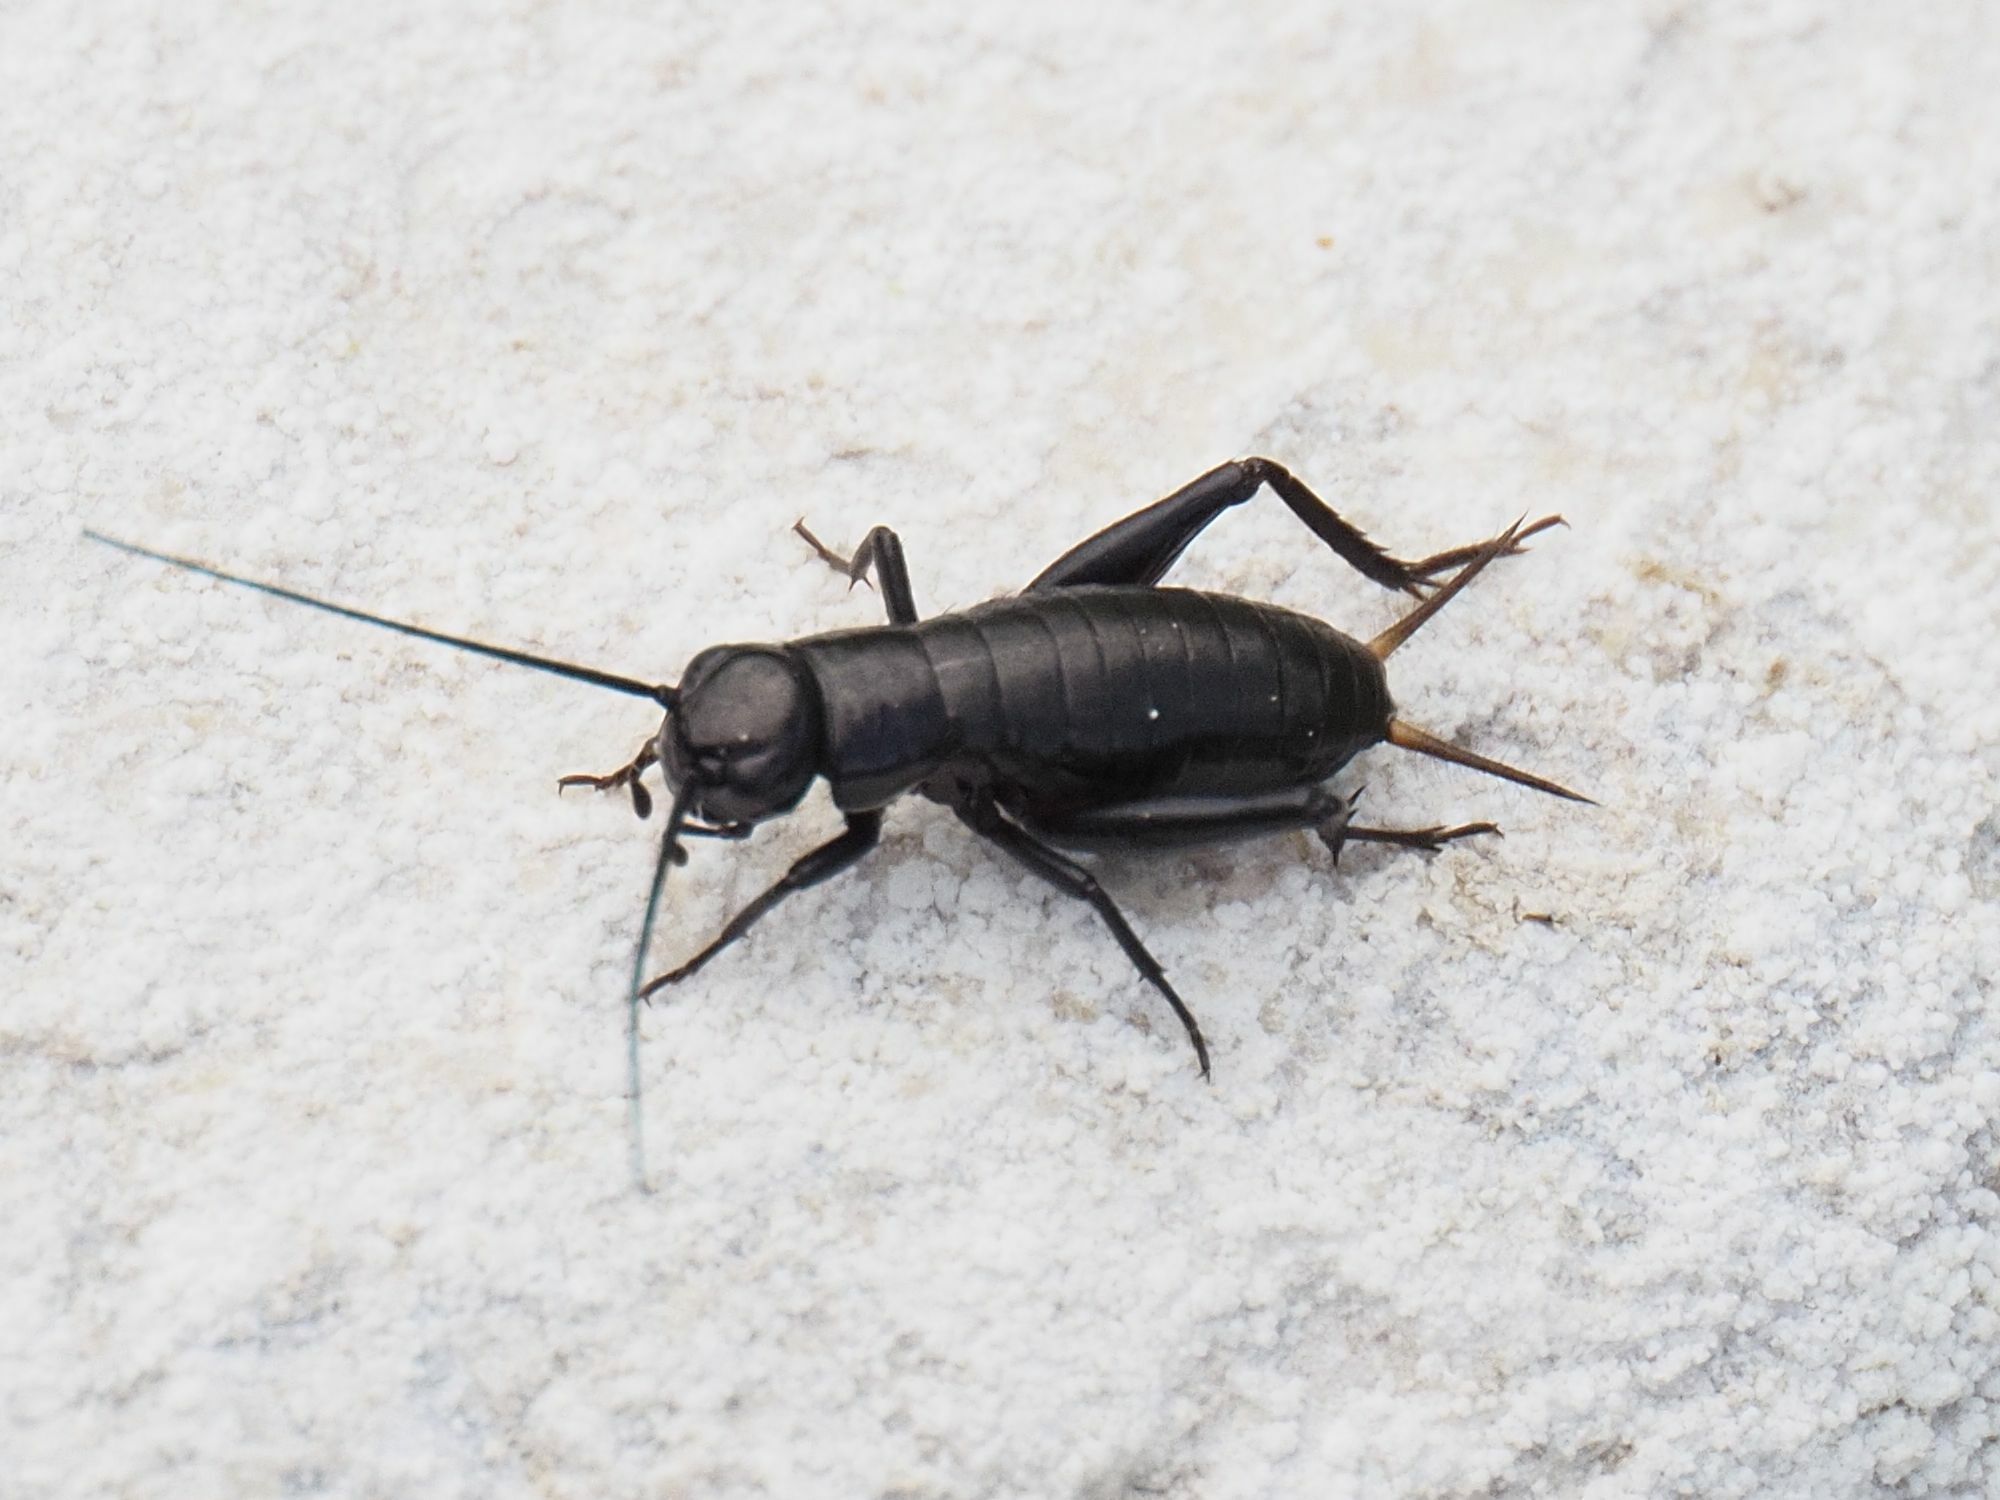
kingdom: Animalia
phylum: Arthropoda
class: Insecta
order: Orthoptera
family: Gryllidae
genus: Gryllus
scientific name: Gryllus campestris
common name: Field cricket
